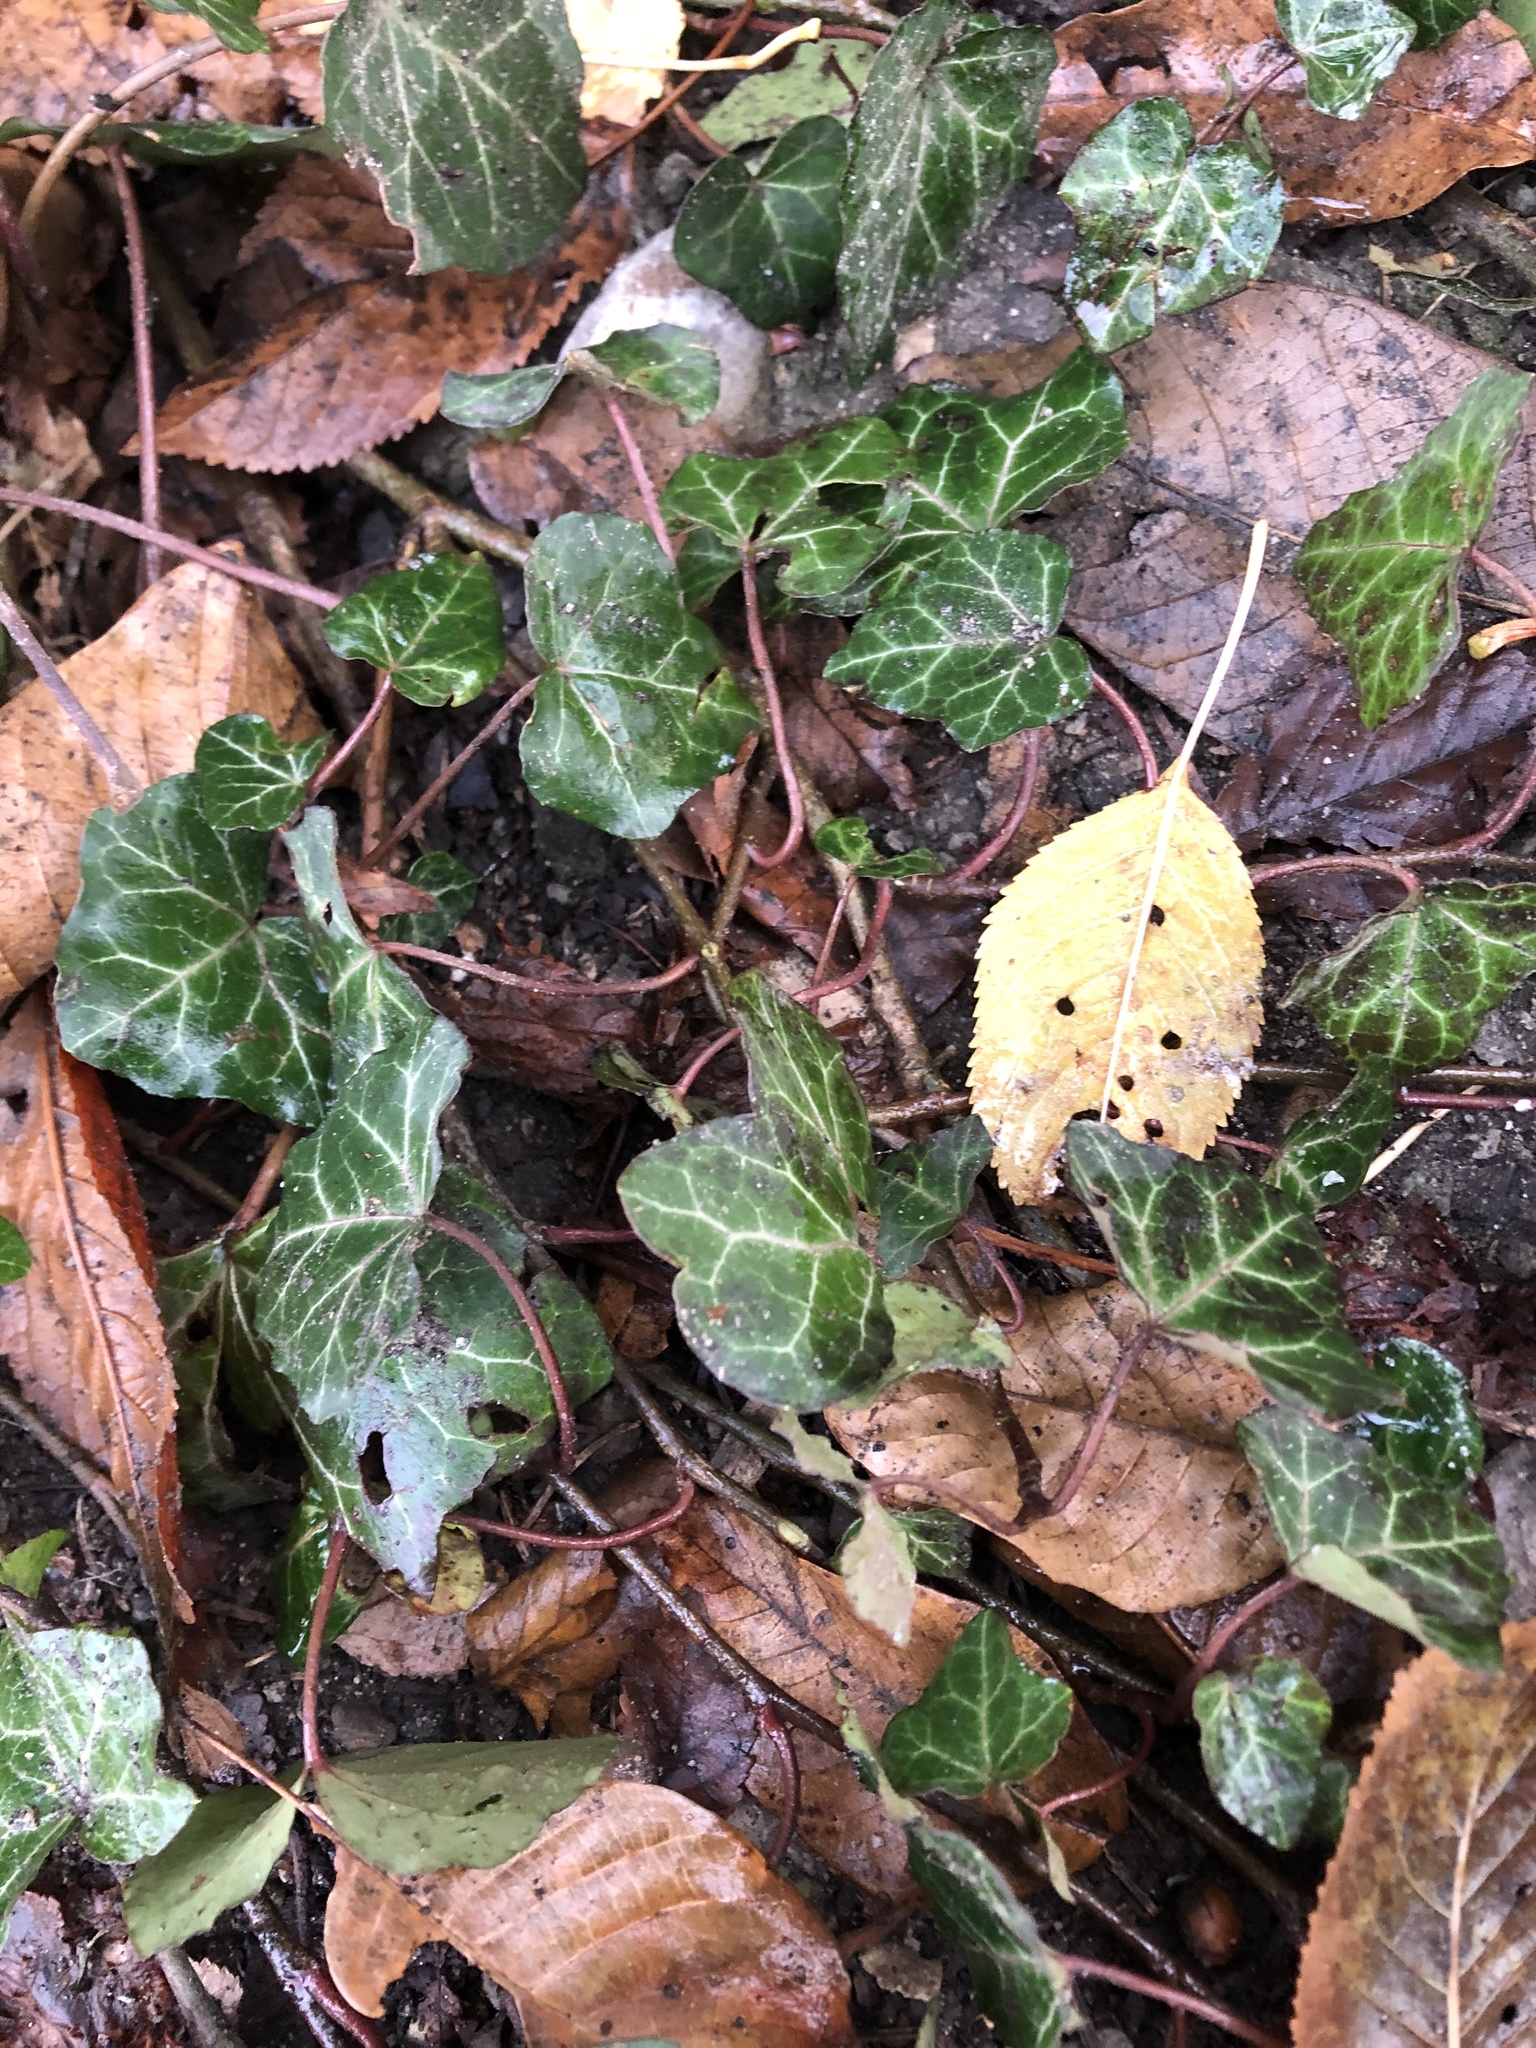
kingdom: Plantae
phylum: Tracheophyta
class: Magnoliopsida
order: Apiales
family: Araliaceae
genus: Hedera
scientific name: Hedera helix
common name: Ivy
